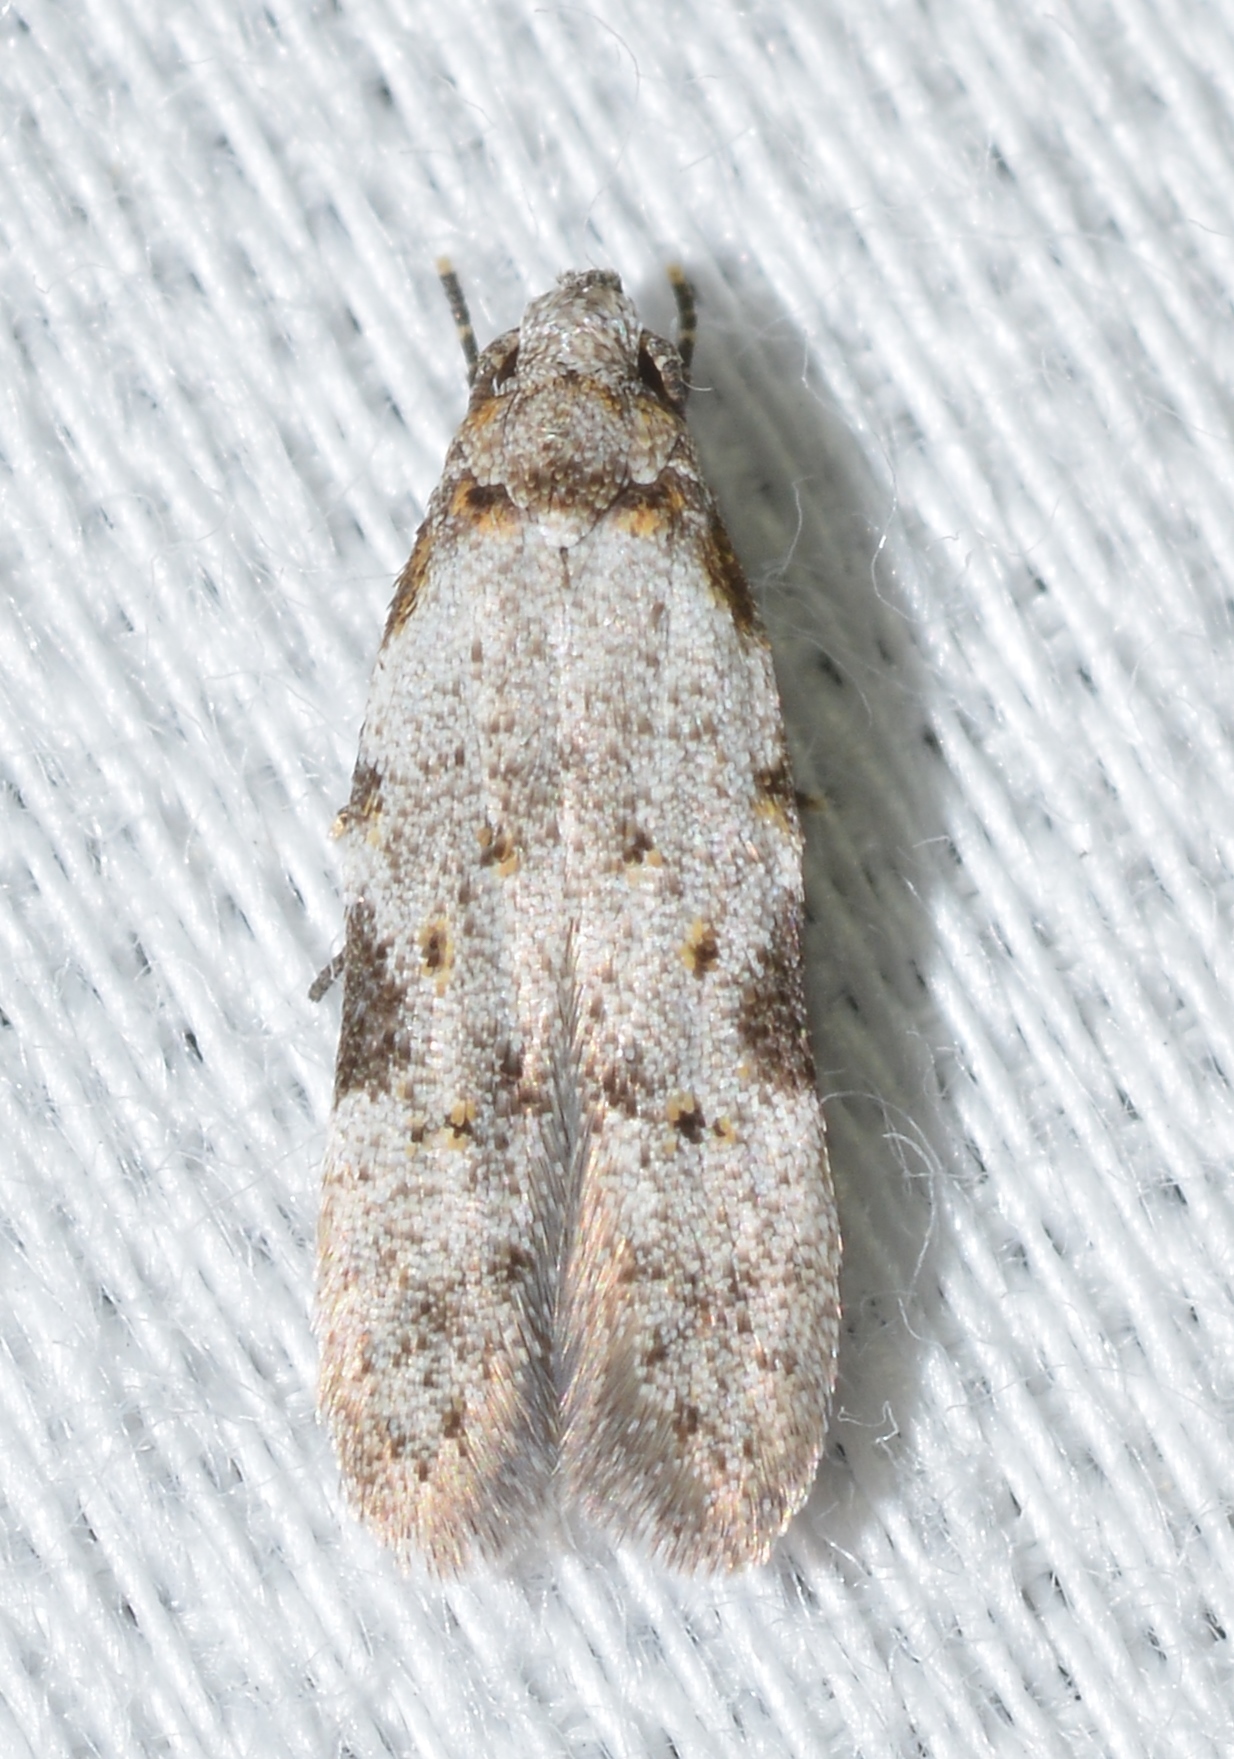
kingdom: Animalia
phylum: Arthropoda
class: Insecta
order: Lepidoptera
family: Autostichidae
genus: Taygete
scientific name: Taygete attributella
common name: Triangle-marked twirler moth
